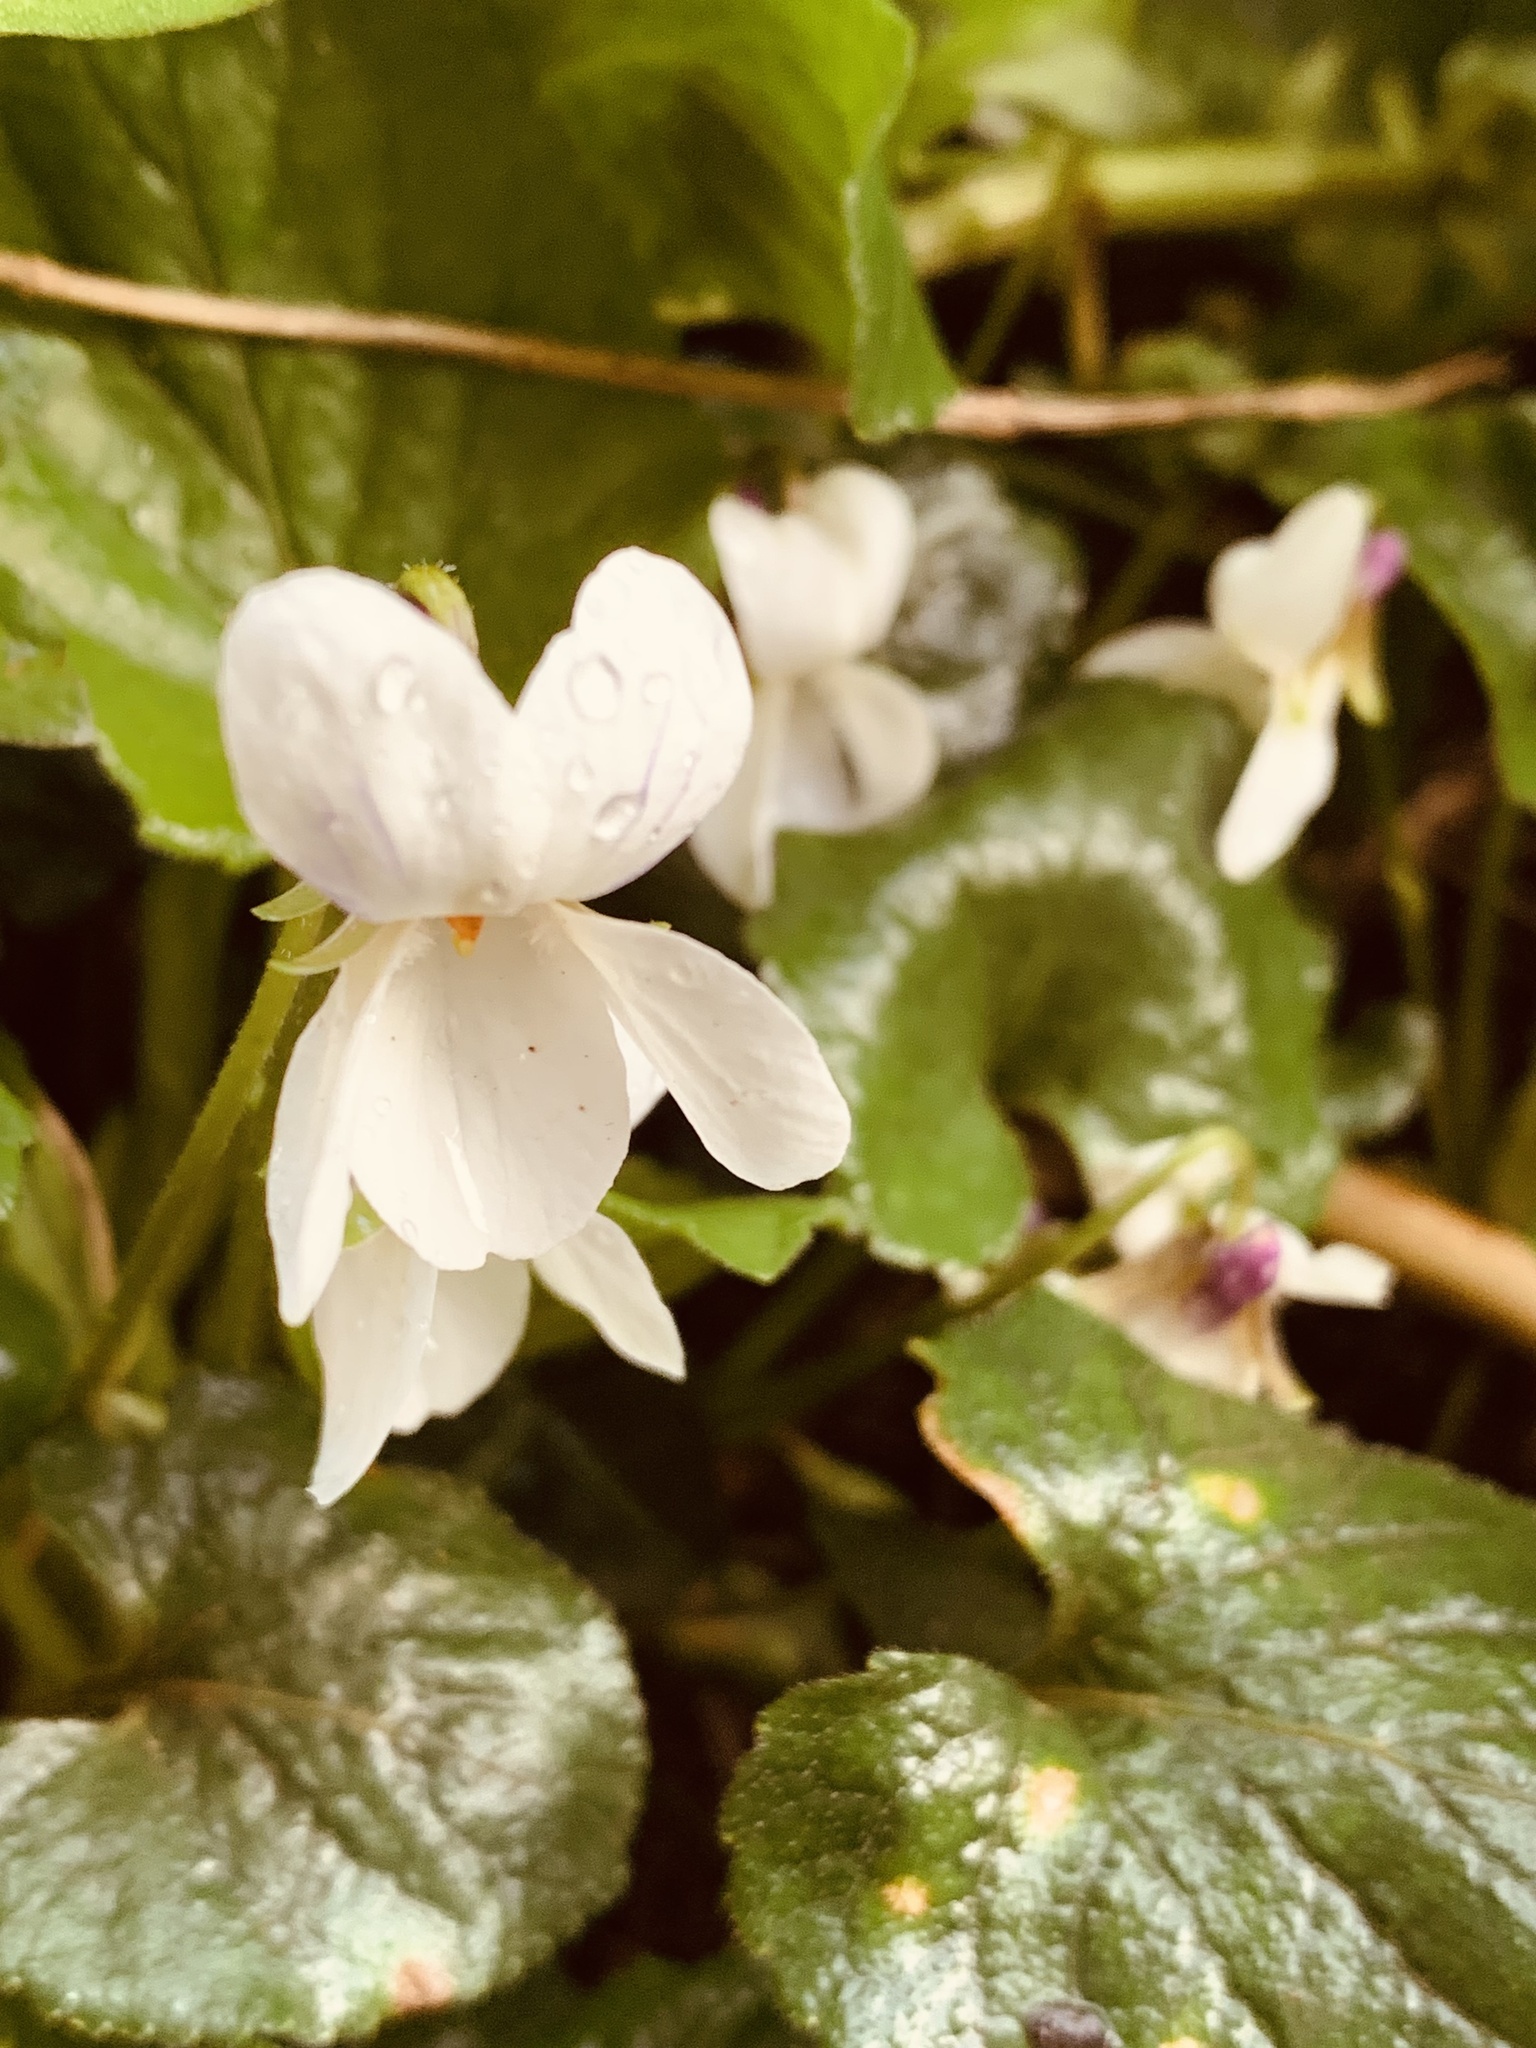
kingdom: Plantae
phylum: Tracheophyta
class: Magnoliopsida
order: Malpighiales
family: Violaceae
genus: Viola
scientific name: Viola odorata
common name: Sweet violet
